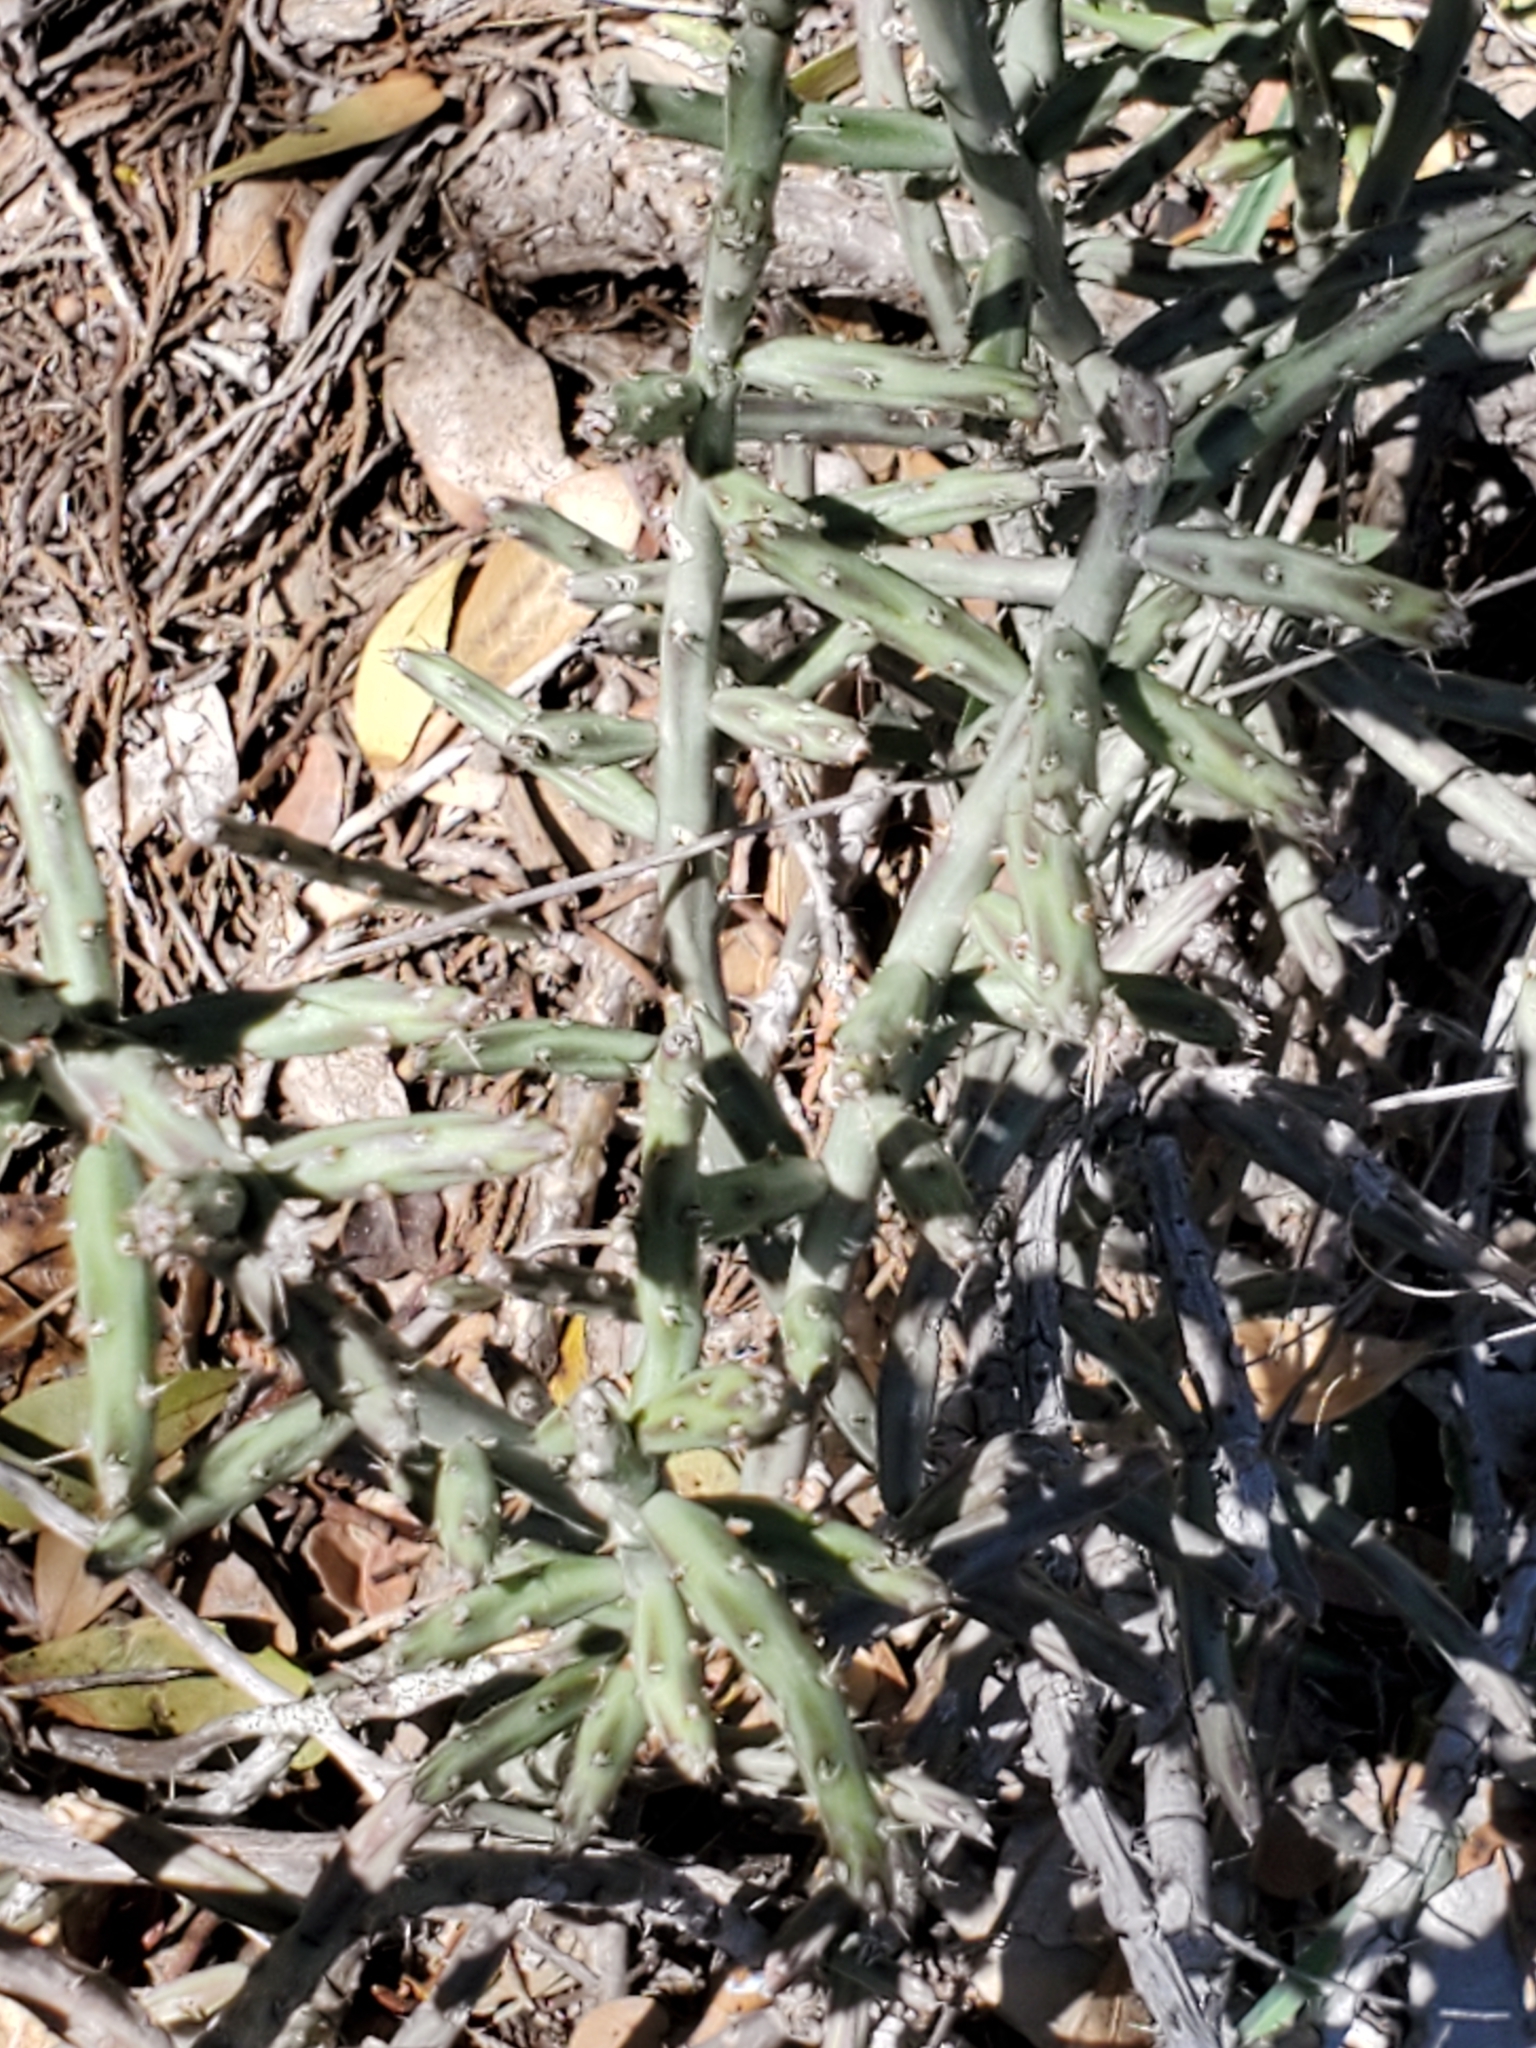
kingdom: Plantae
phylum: Tracheophyta
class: Magnoliopsida
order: Caryophyllales
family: Cactaceae
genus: Cylindropuntia
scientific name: Cylindropuntia leptocaulis
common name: Christmas cactus
